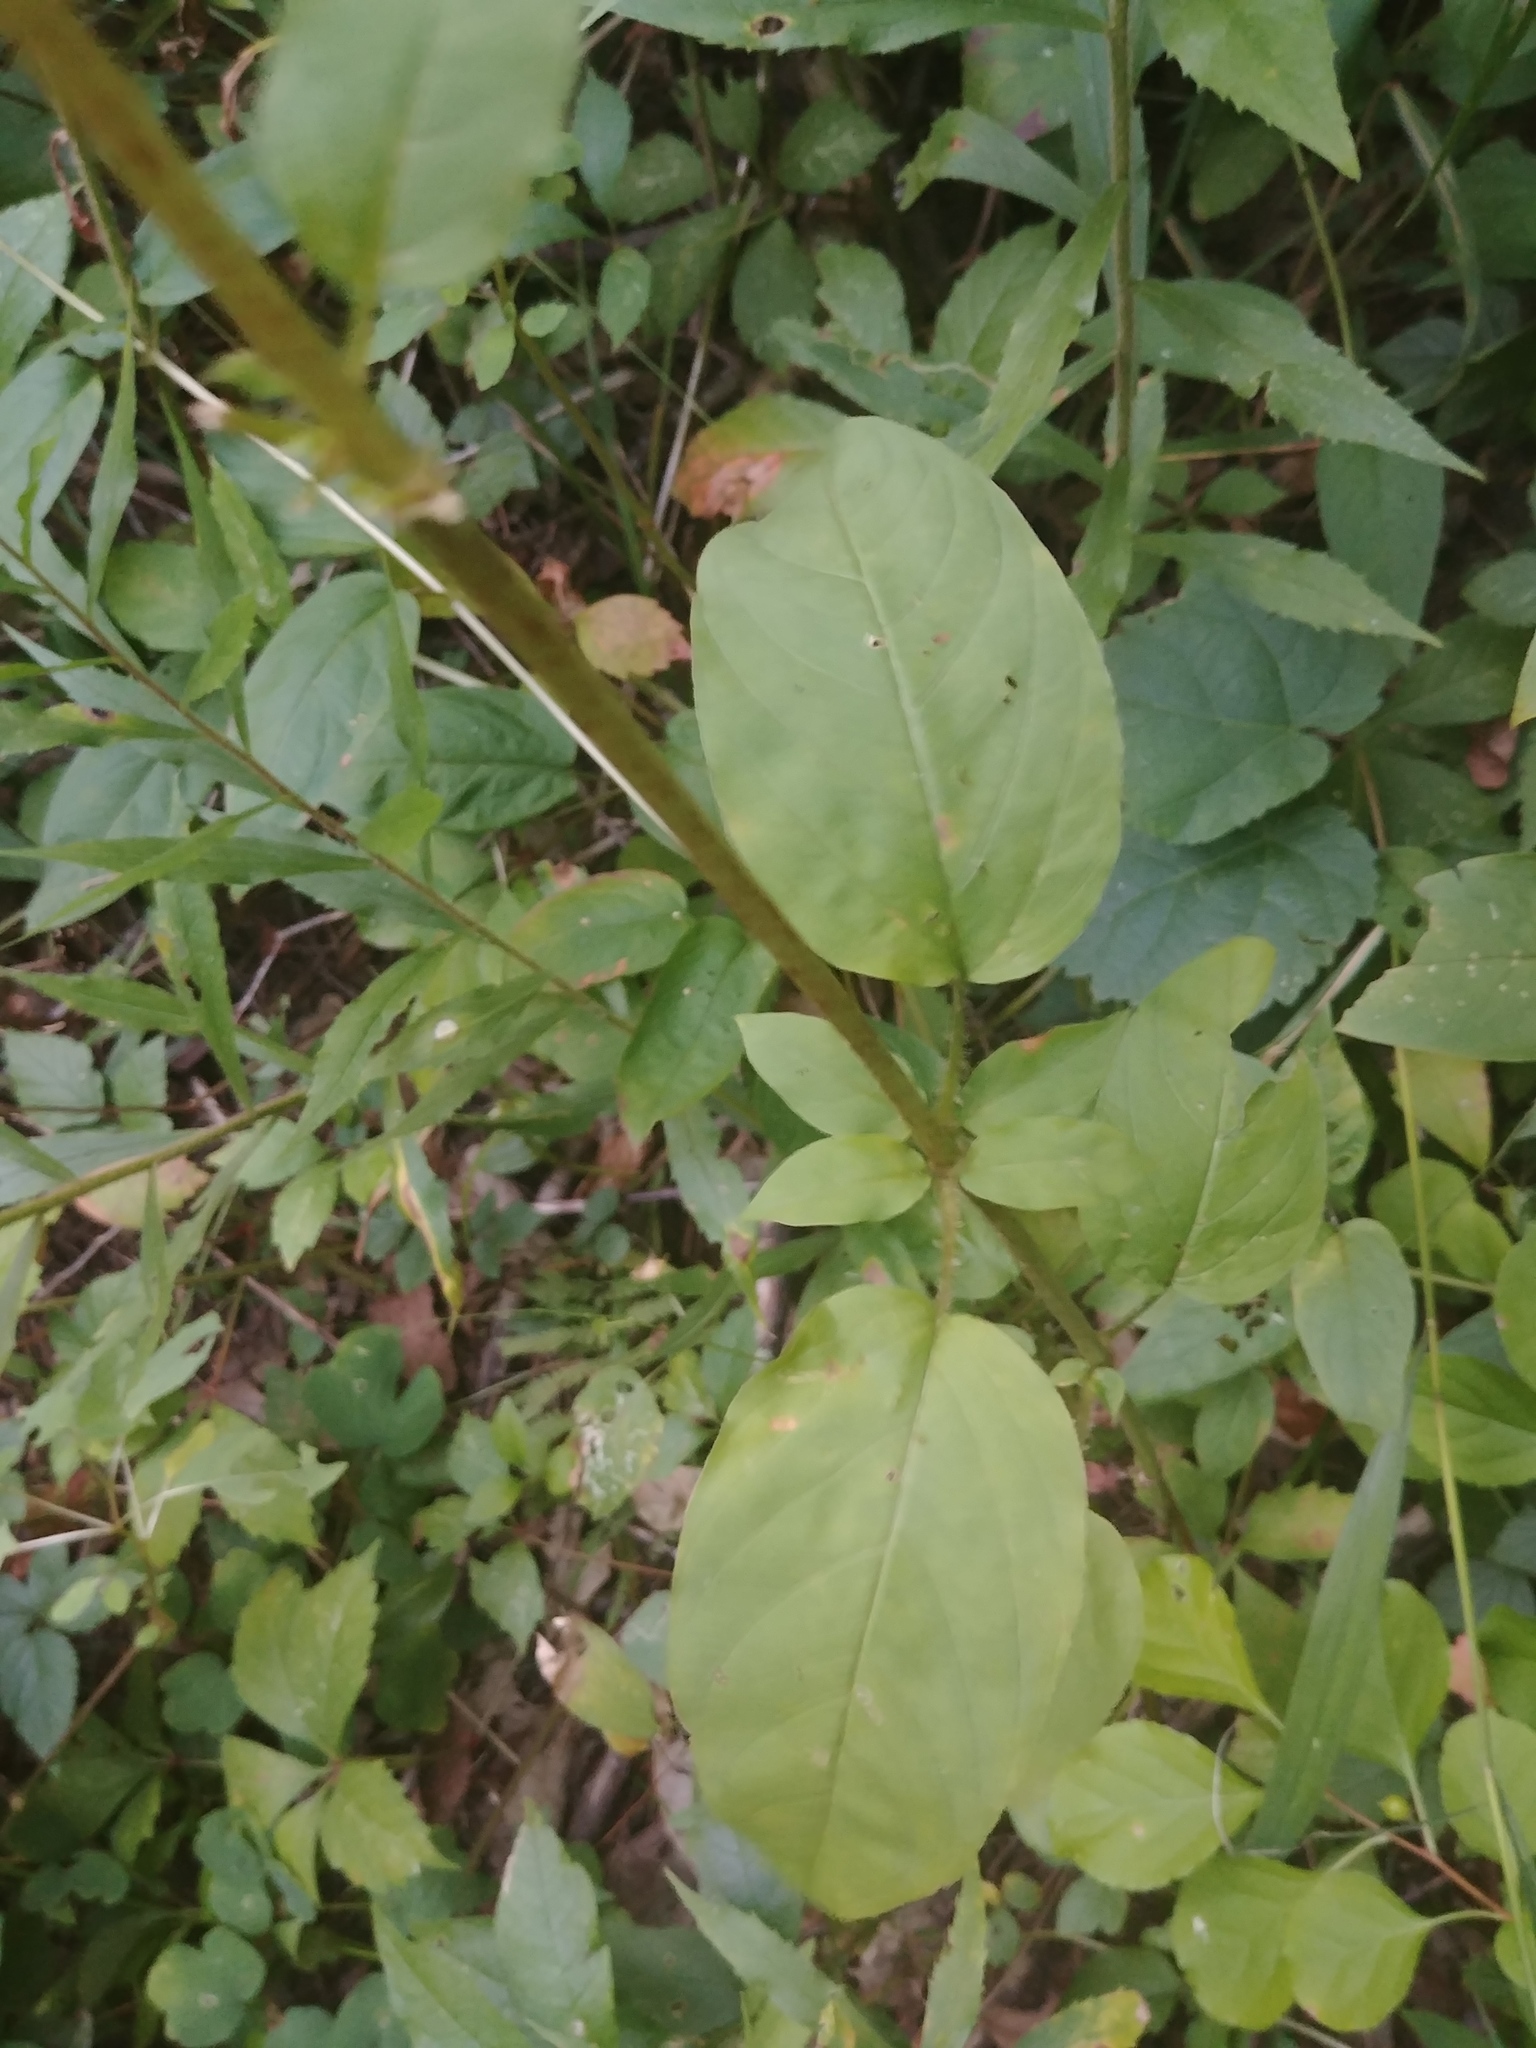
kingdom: Plantae
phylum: Tracheophyta
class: Magnoliopsida
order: Ericales
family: Primulaceae
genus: Lysimachia
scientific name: Lysimachia ciliata
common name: Fringed loosestrife
